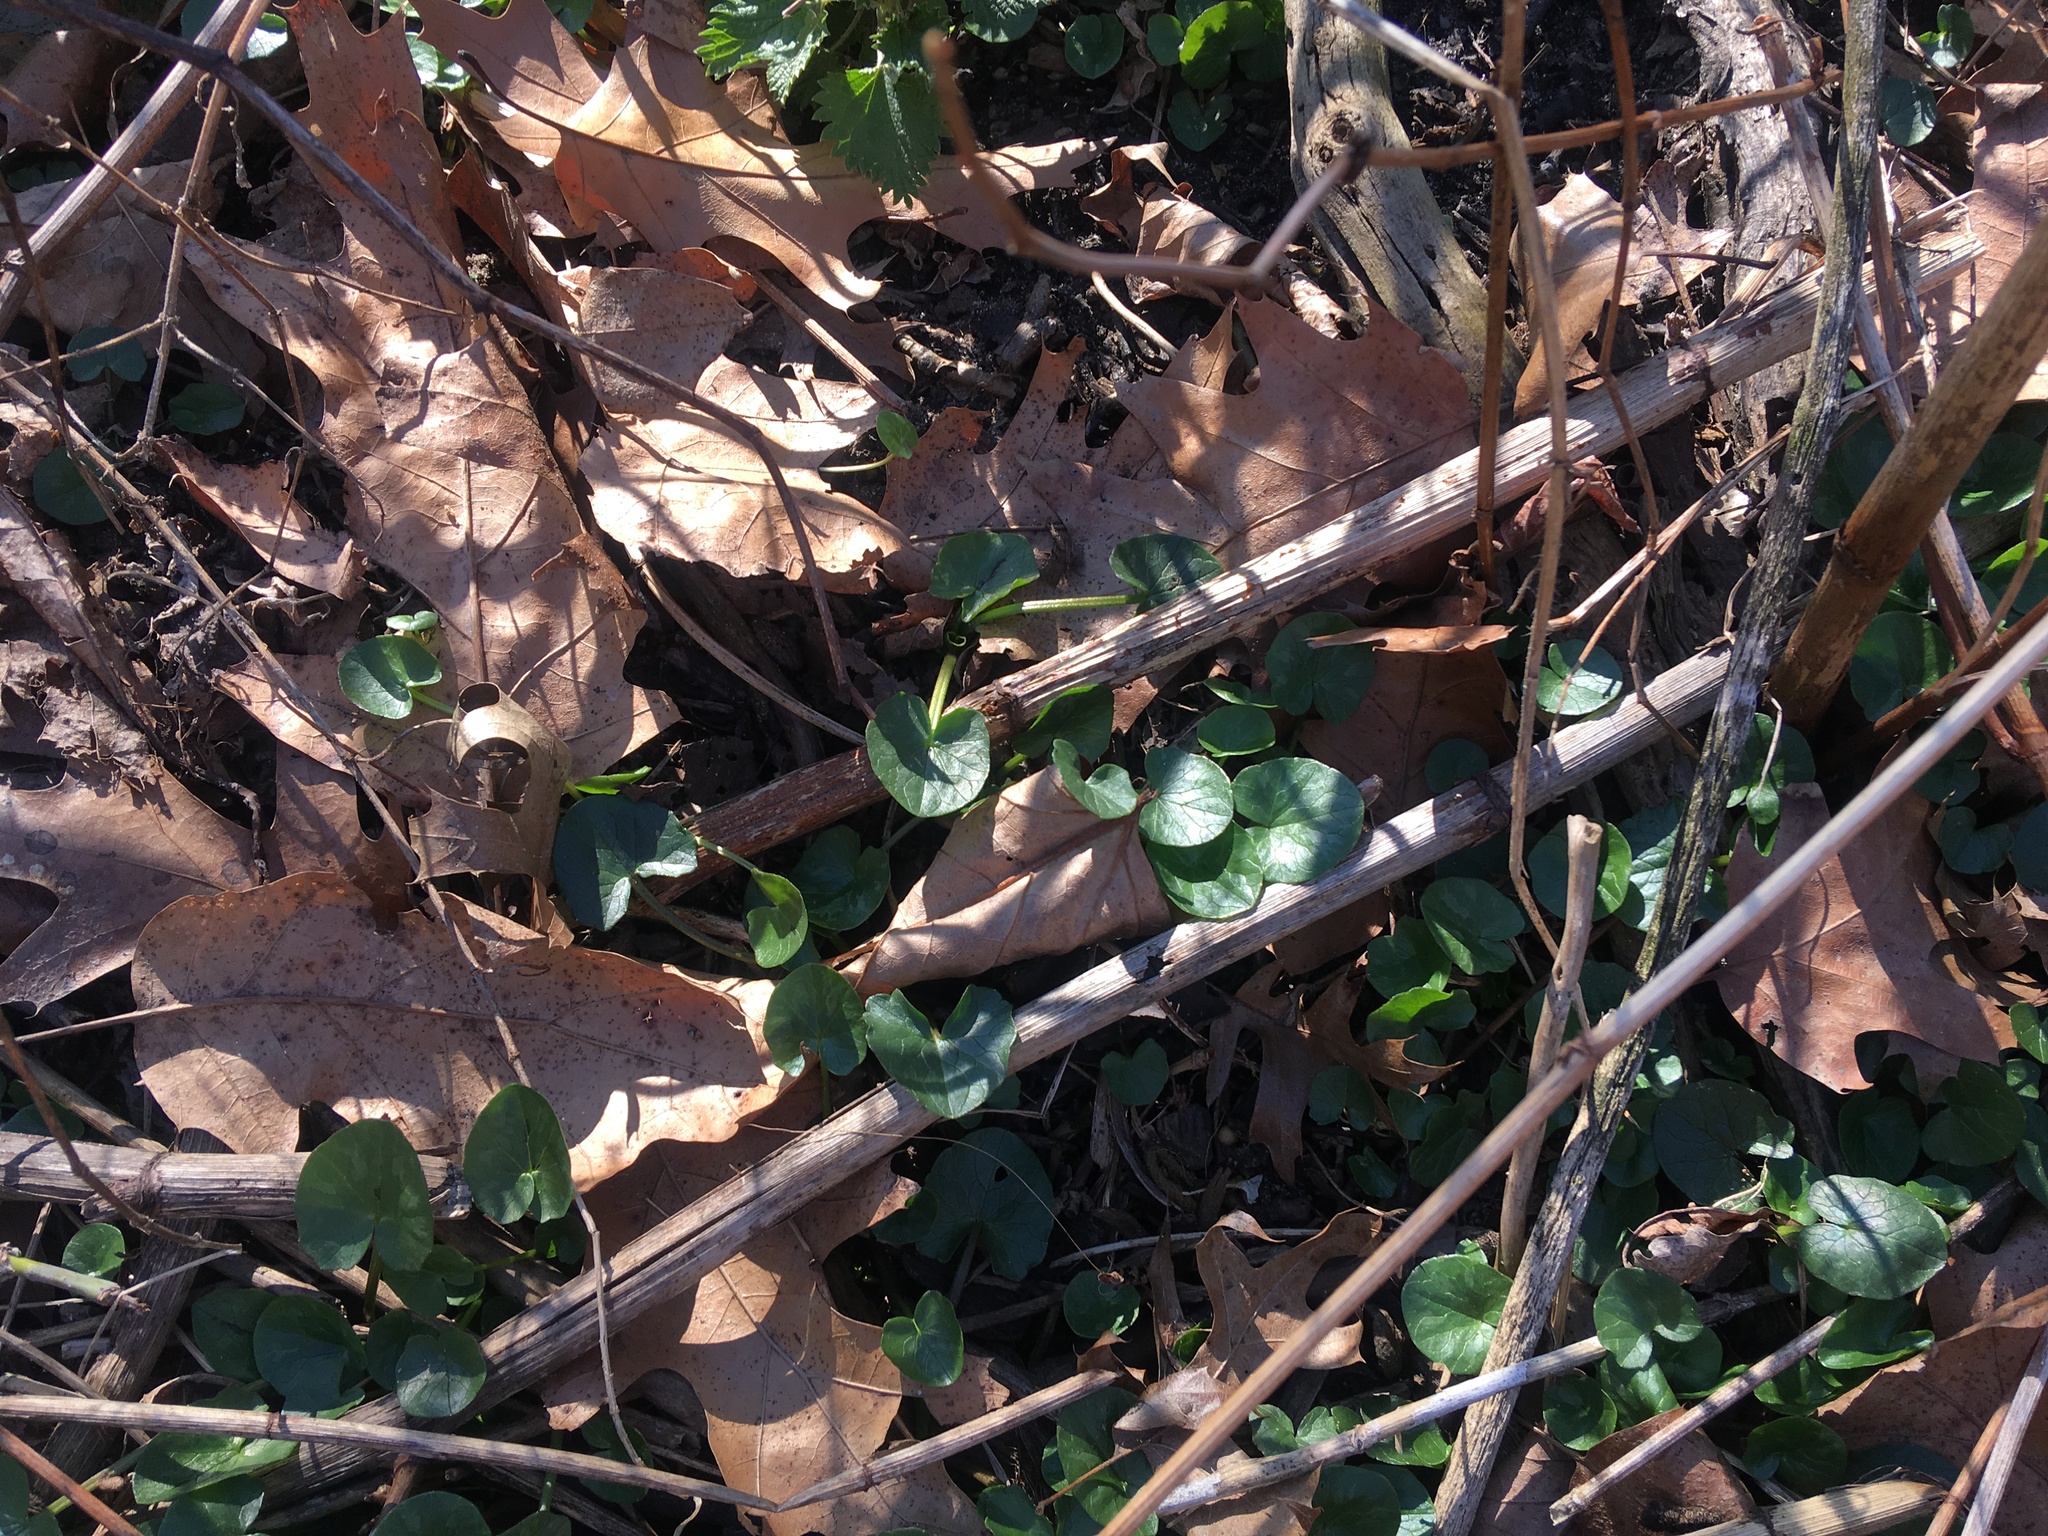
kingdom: Plantae
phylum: Tracheophyta
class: Magnoliopsida
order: Ranunculales
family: Ranunculaceae
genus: Ficaria
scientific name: Ficaria verna
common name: Lesser celandine
